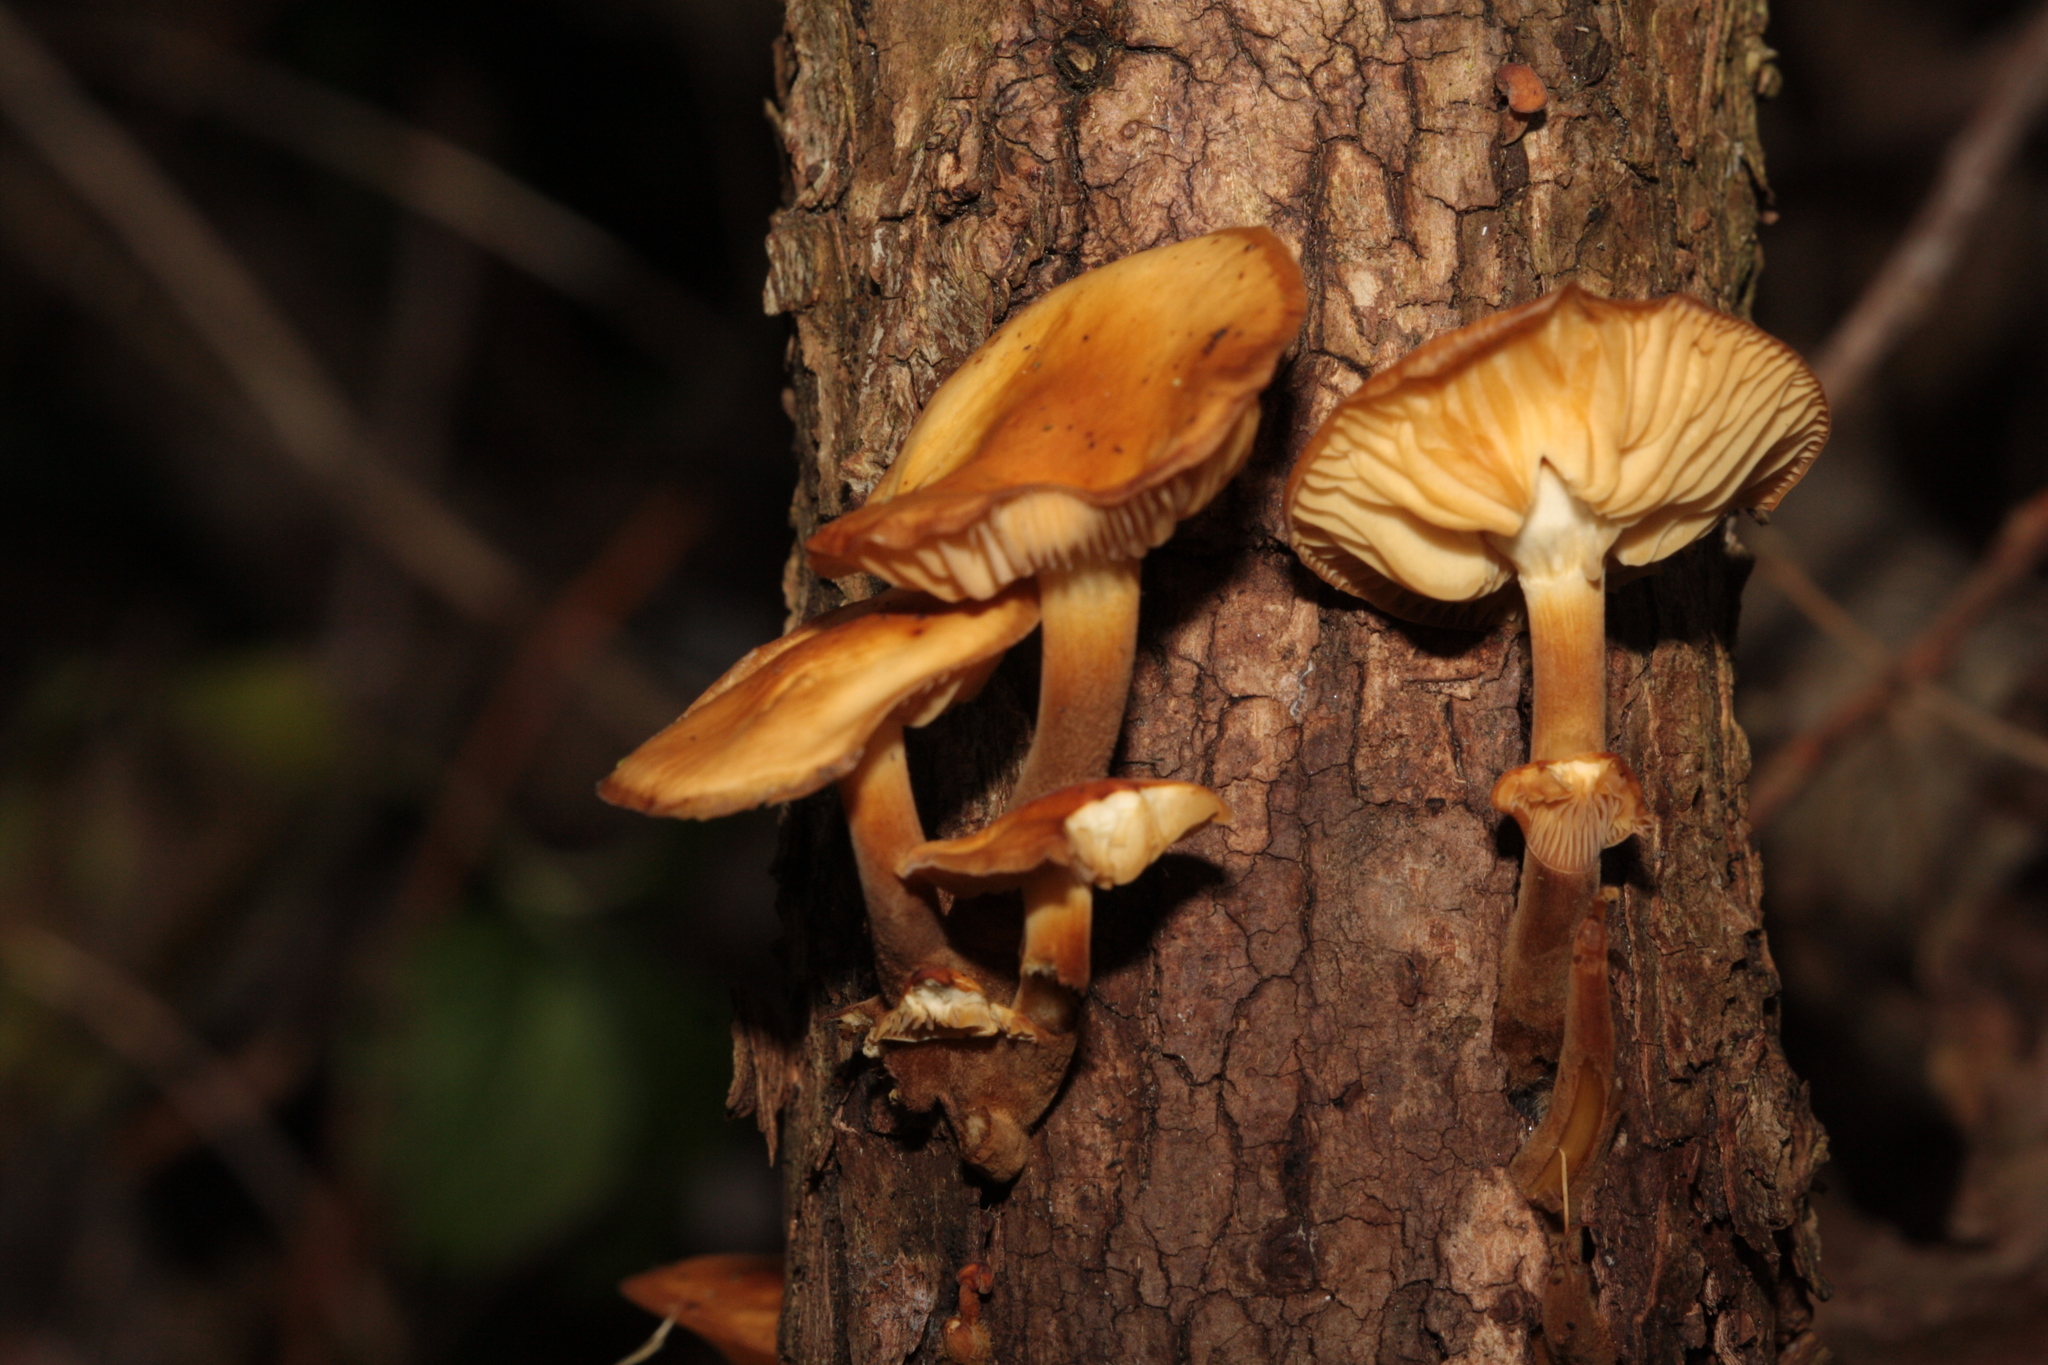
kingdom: Fungi
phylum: Basidiomycota
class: Agaricomycetes
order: Agaricales
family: Physalacriaceae
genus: Flammulina
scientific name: Flammulina
